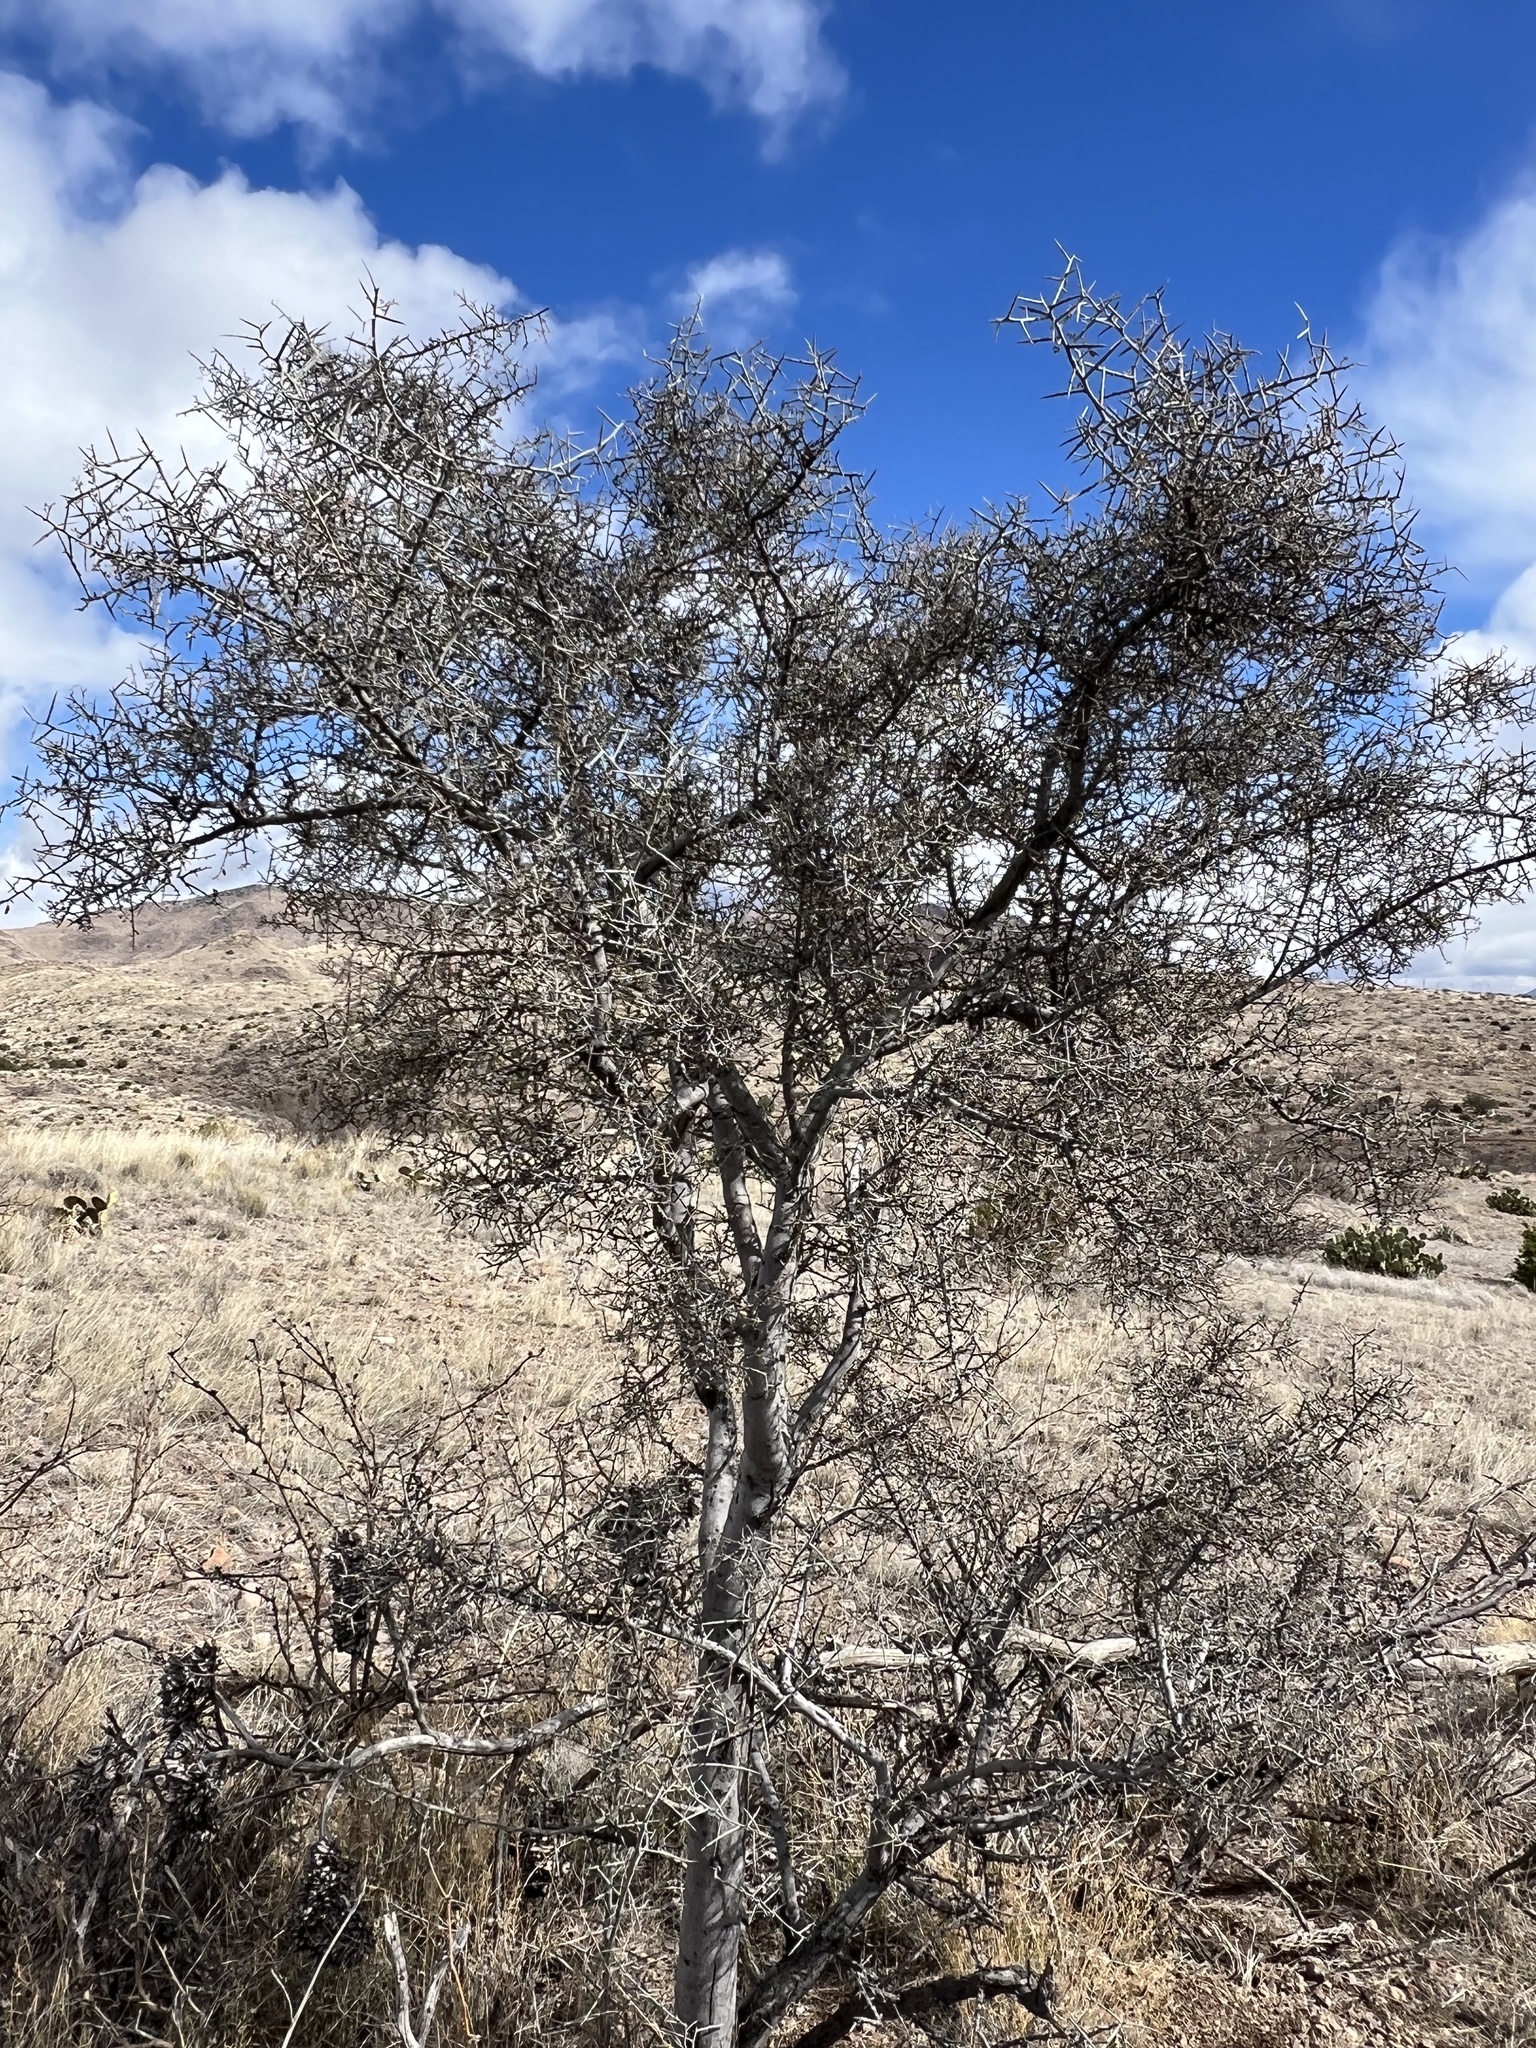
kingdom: Plantae
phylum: Tracheophyta
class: Magnoliopsida
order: Rosales
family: Rhamnaceae
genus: Sarcomphalus
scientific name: Sarcomphalus obtusifolius
